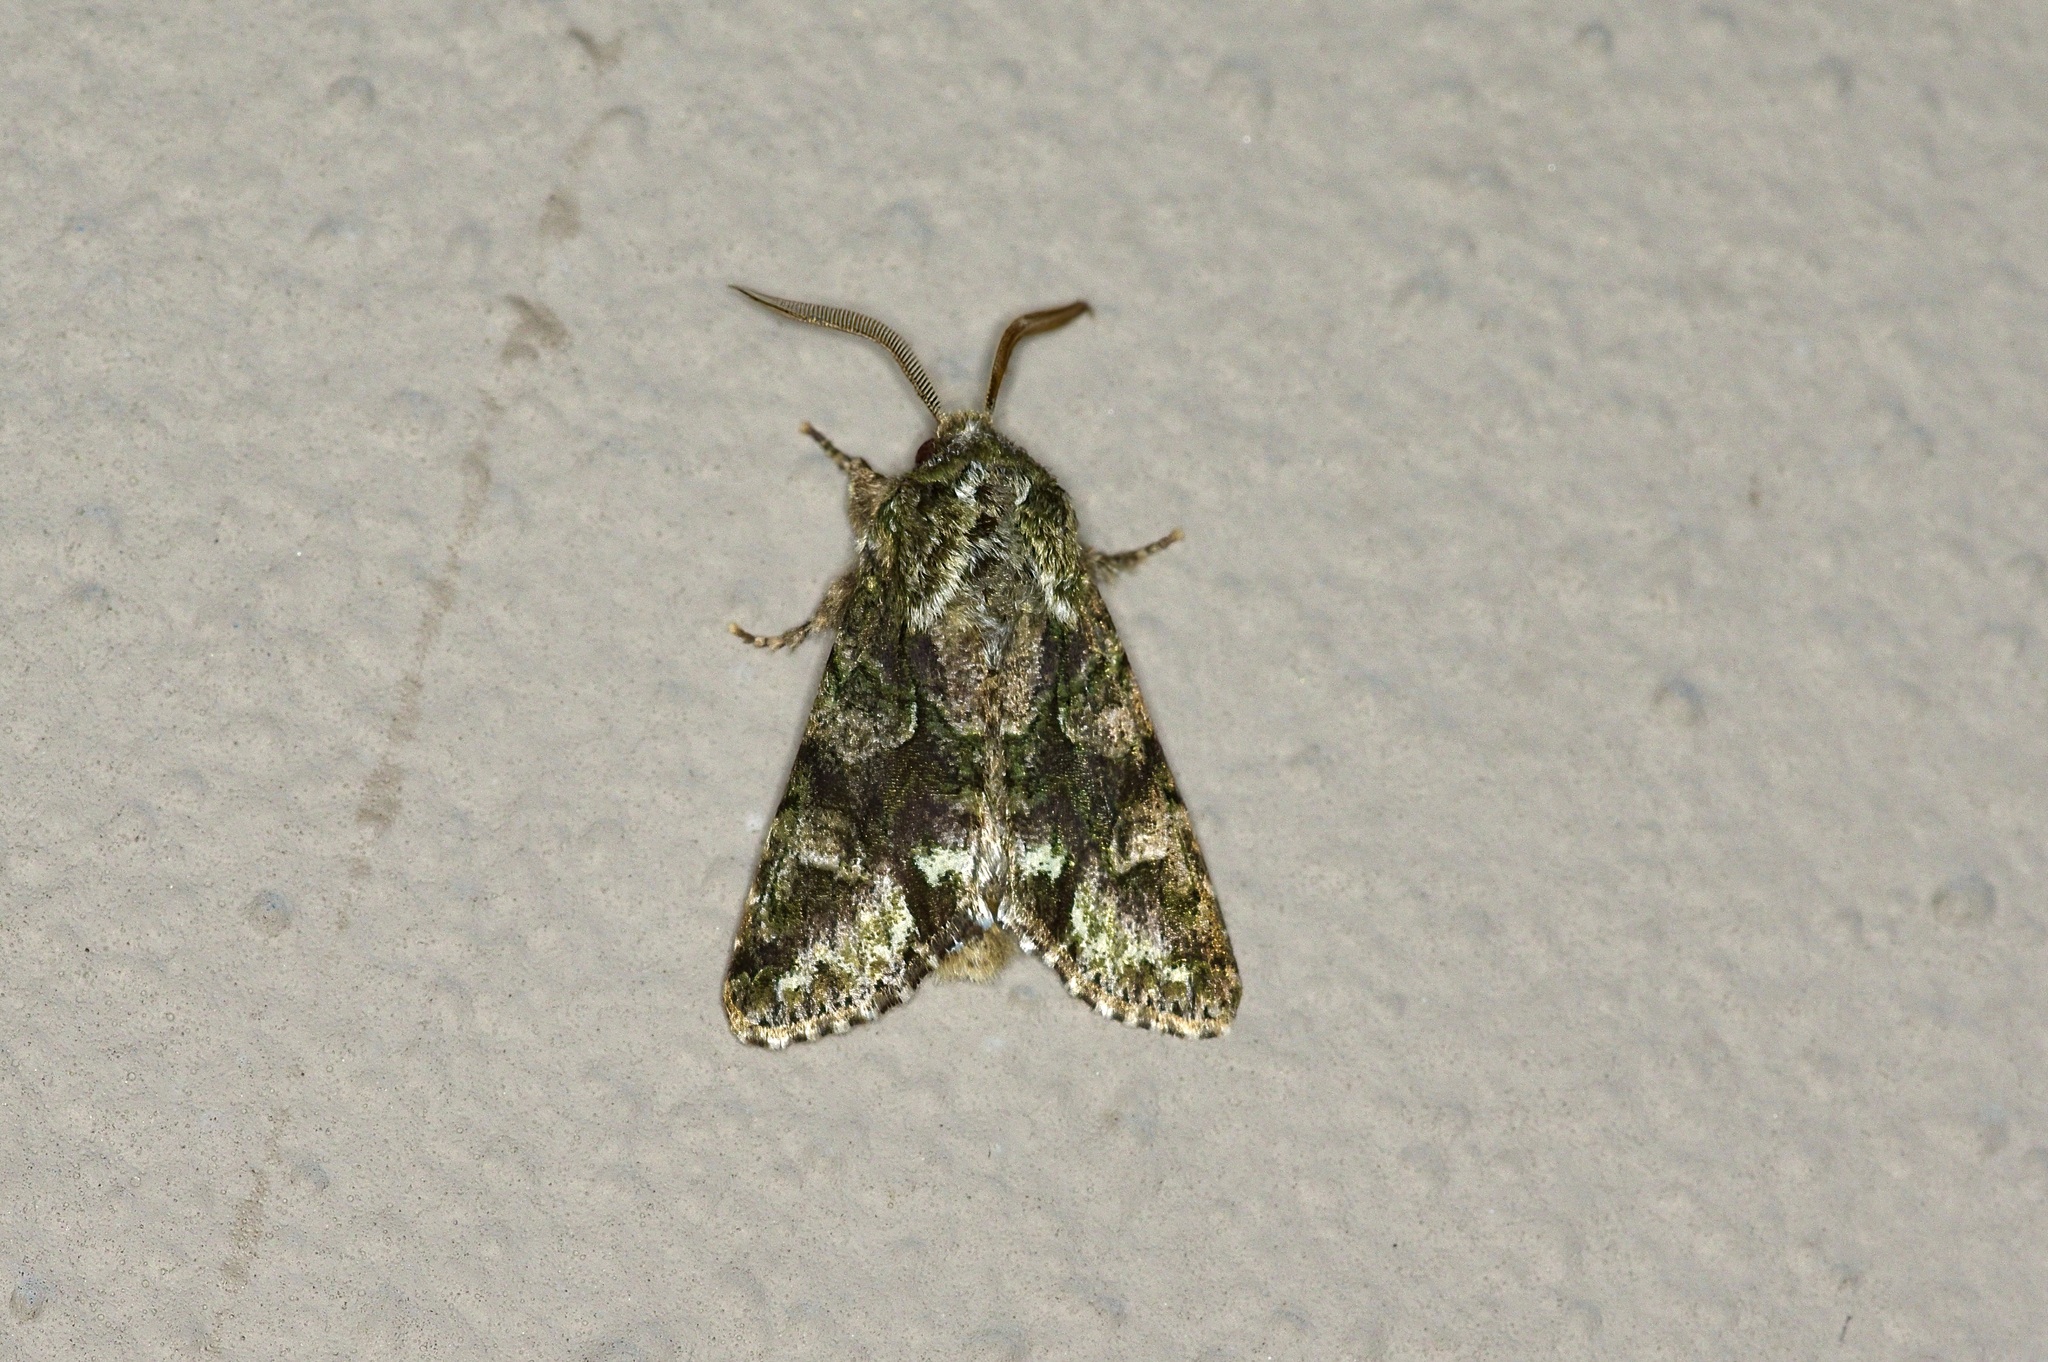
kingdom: Animalia
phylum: Arthropoda
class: Insecta
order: Lepidoptera
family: Noctuidae
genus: Psaphida
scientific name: Psaphida resumens
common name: Figure-eight sallow
